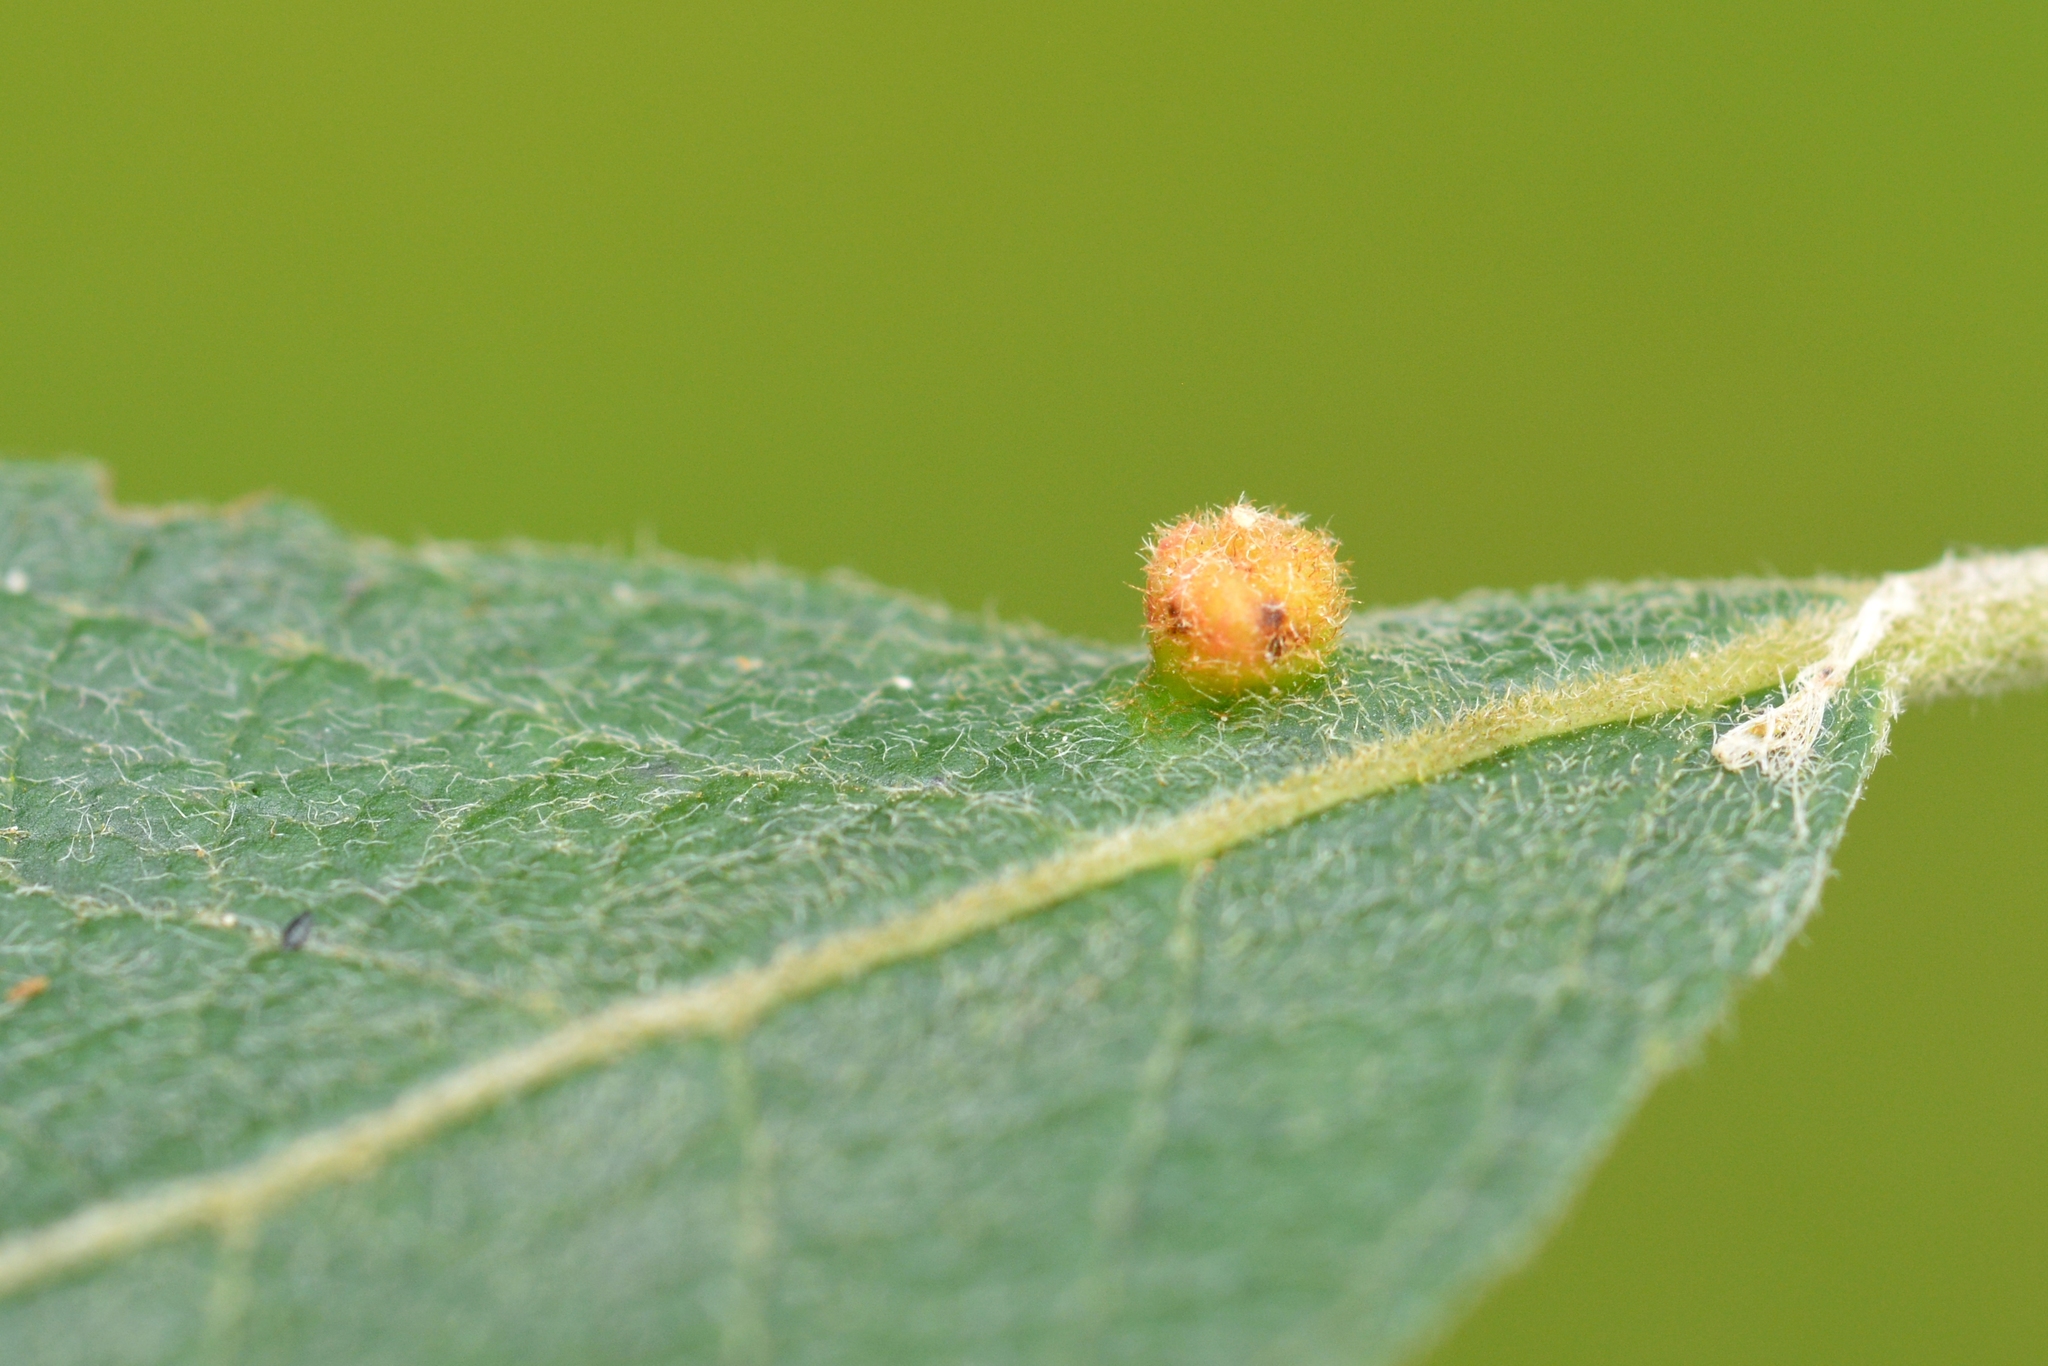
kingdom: Animalia
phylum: Arthropoda
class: Arachnida
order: Trombidiformes
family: Eriophyidae
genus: Aculus
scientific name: Aculus laevis
